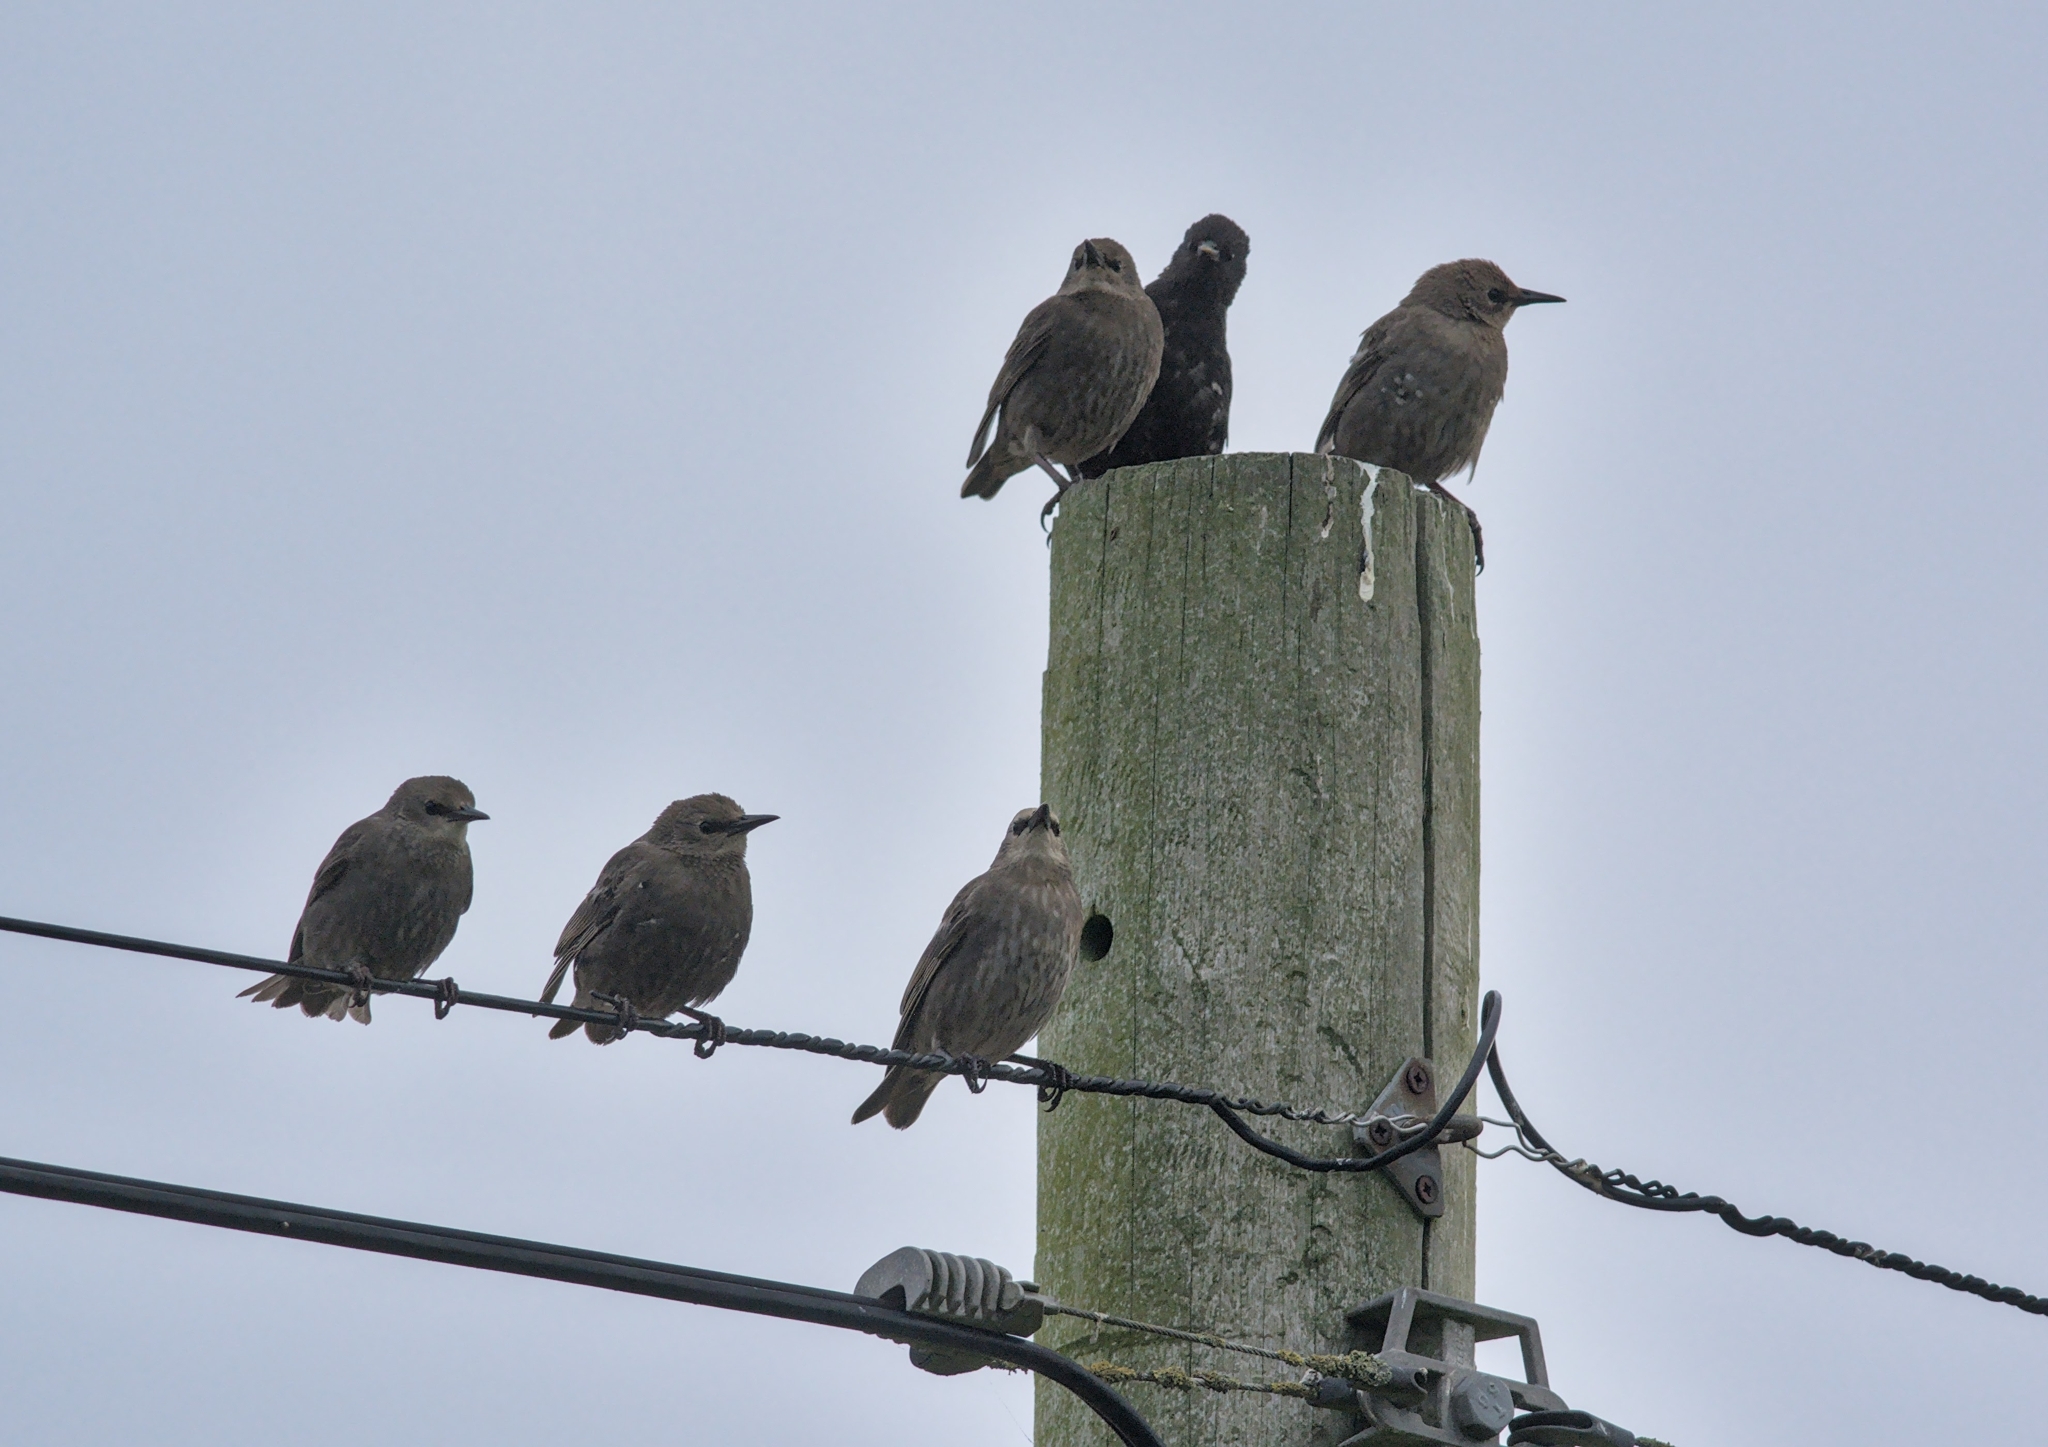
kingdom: Animalia
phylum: Chordata
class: Aves
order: Passeriformes
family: Sturnidae
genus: Sturnus
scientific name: Sturnus vulgaris
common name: Common starling
